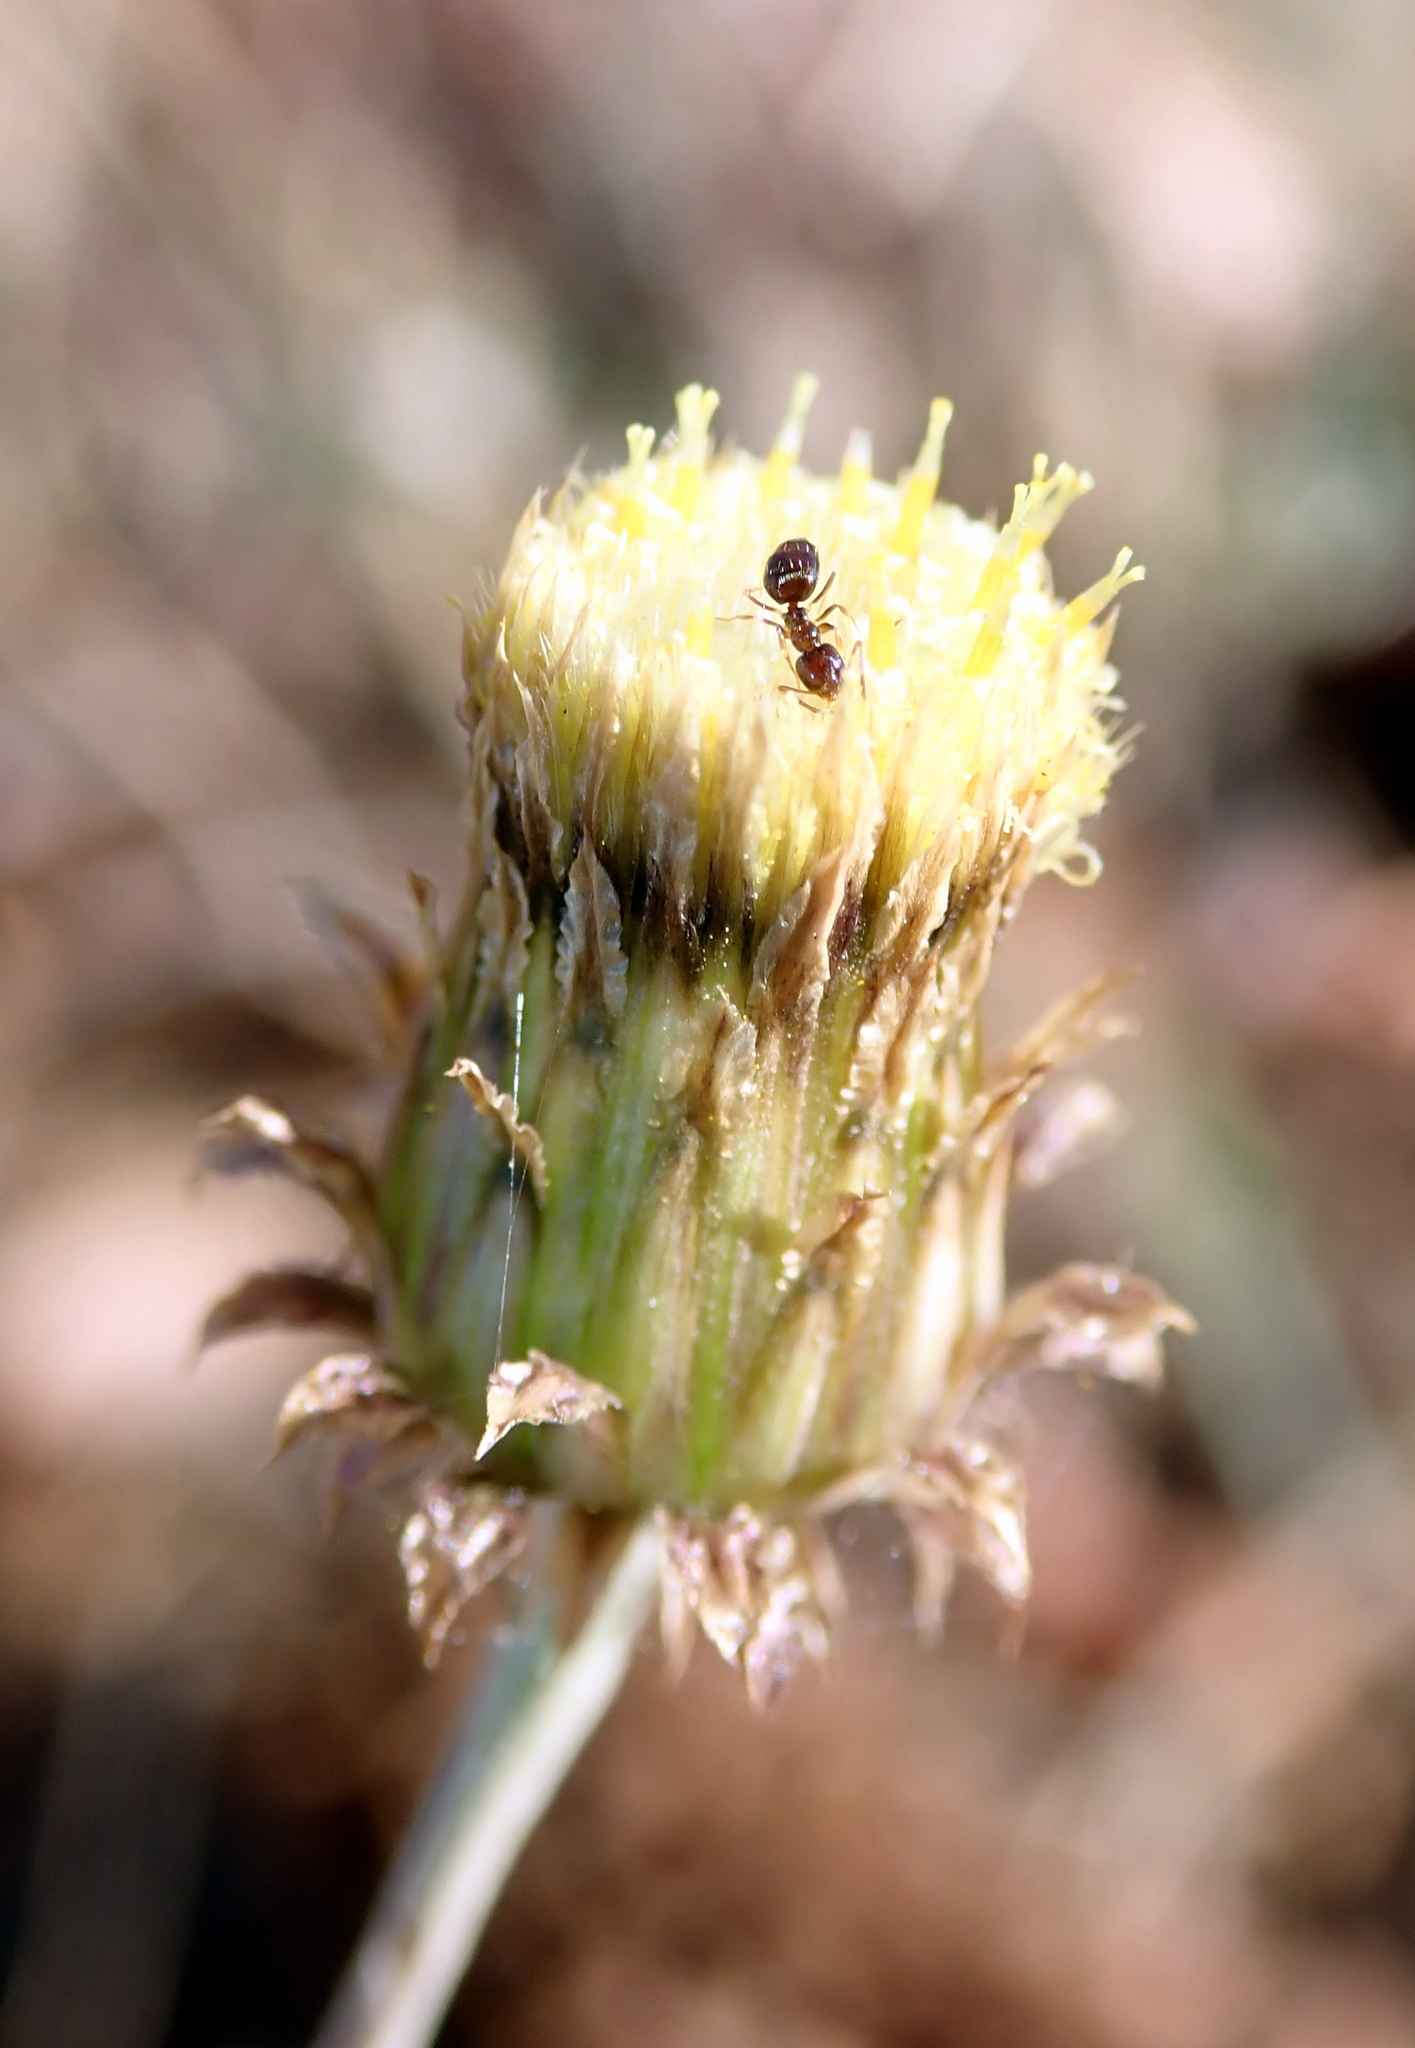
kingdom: Plantae
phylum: Tracheophyta
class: Magnoliopsida
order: Asterales
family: Asteraceae
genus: Phagnalon
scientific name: Phagnalon saxatile
